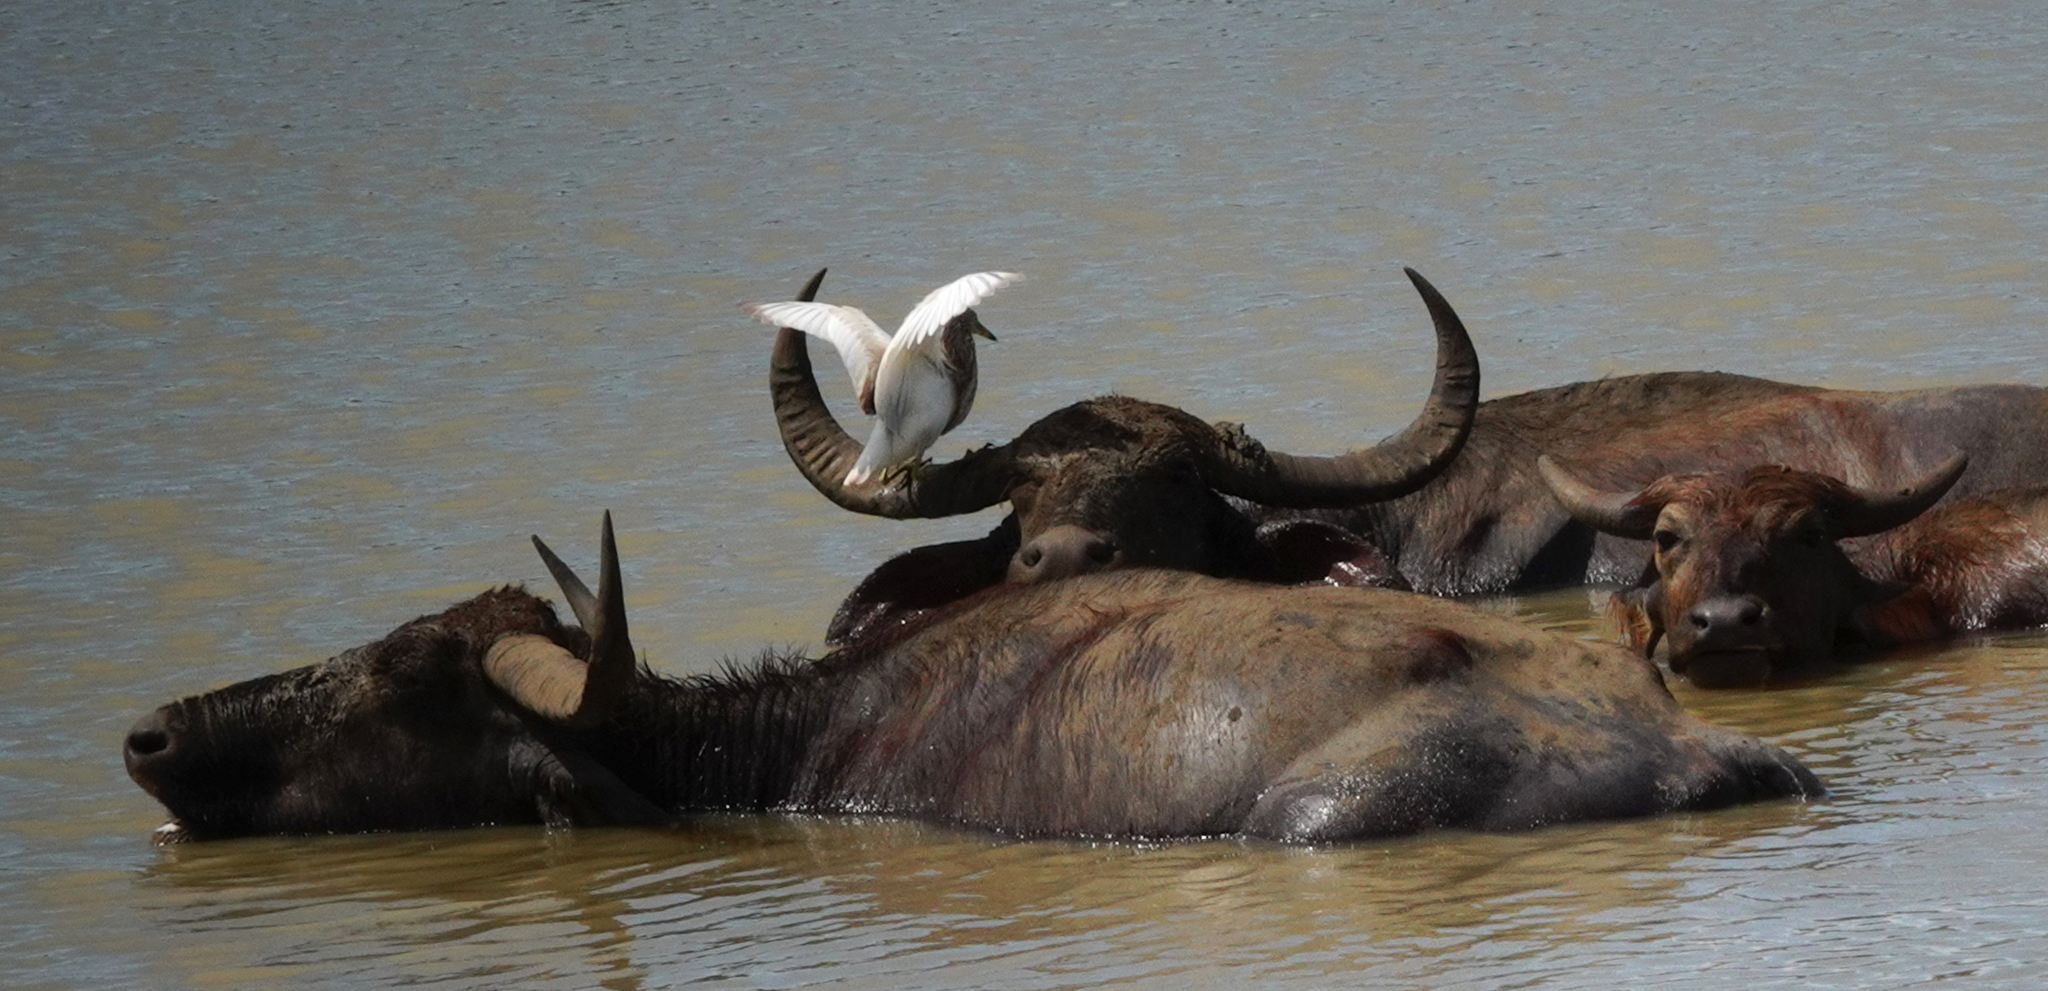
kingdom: Animalia
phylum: Chordata
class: Mammalia
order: Artiodactyla
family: Bovidae
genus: Bubalus
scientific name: Bubalus bubalis
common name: Water buffalo
